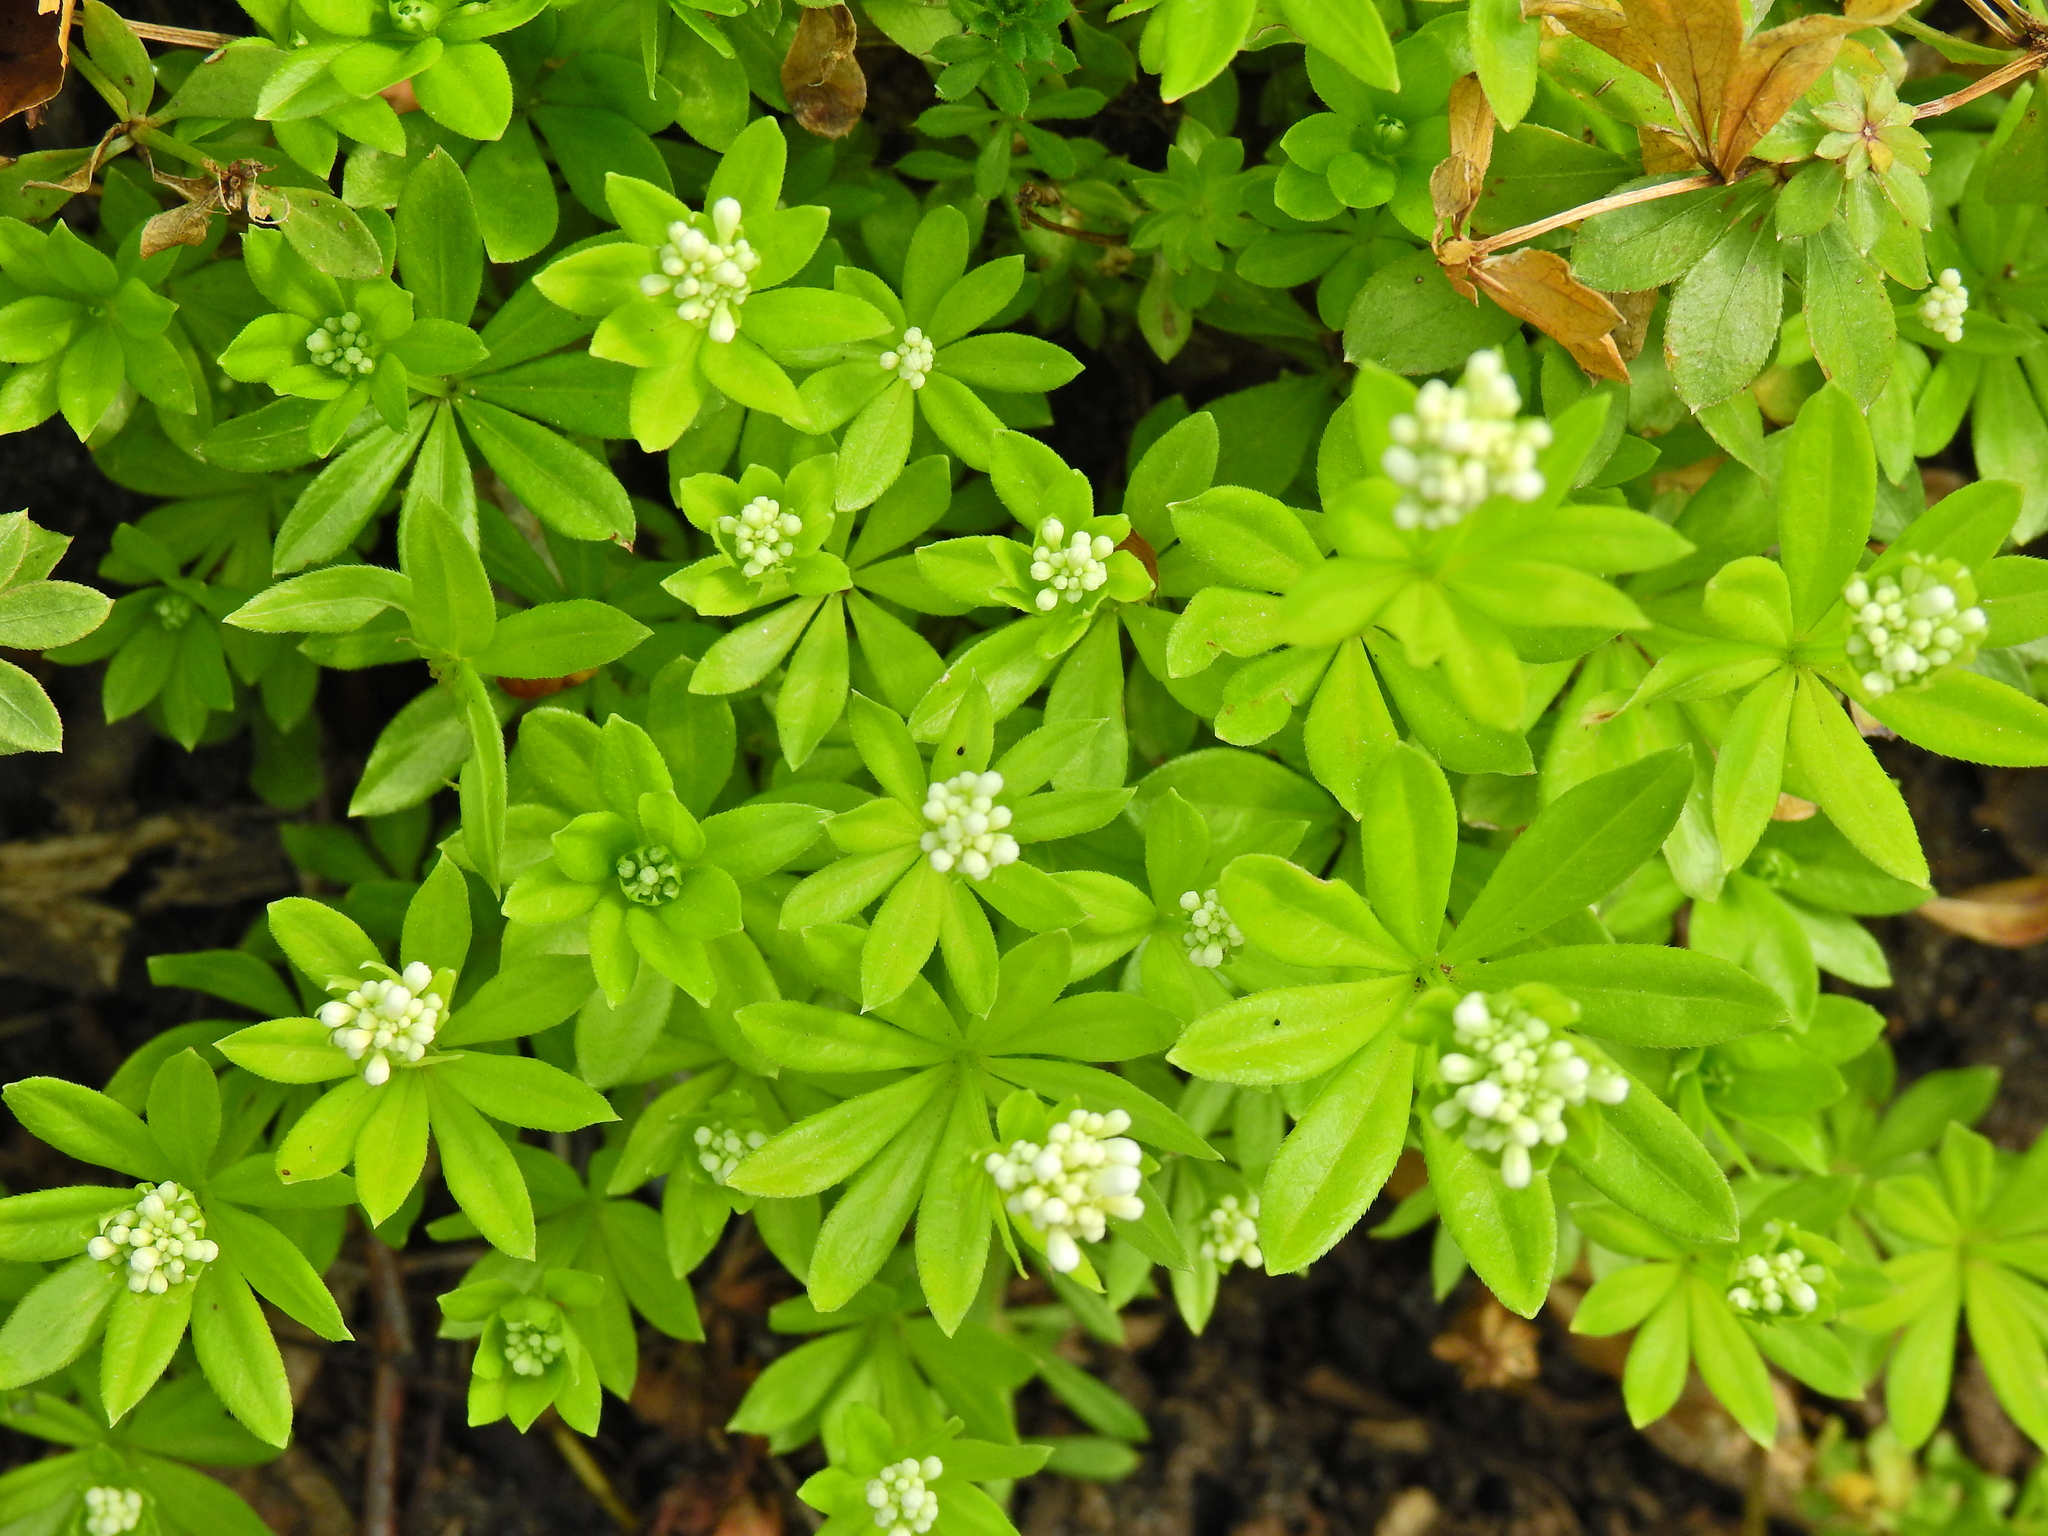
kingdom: Plantae
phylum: Tracheophyta
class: Magnoliopsida
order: Gentianales
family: Rubiaceae
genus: Galium
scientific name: Galium odoratum
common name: Sweet woodruff
